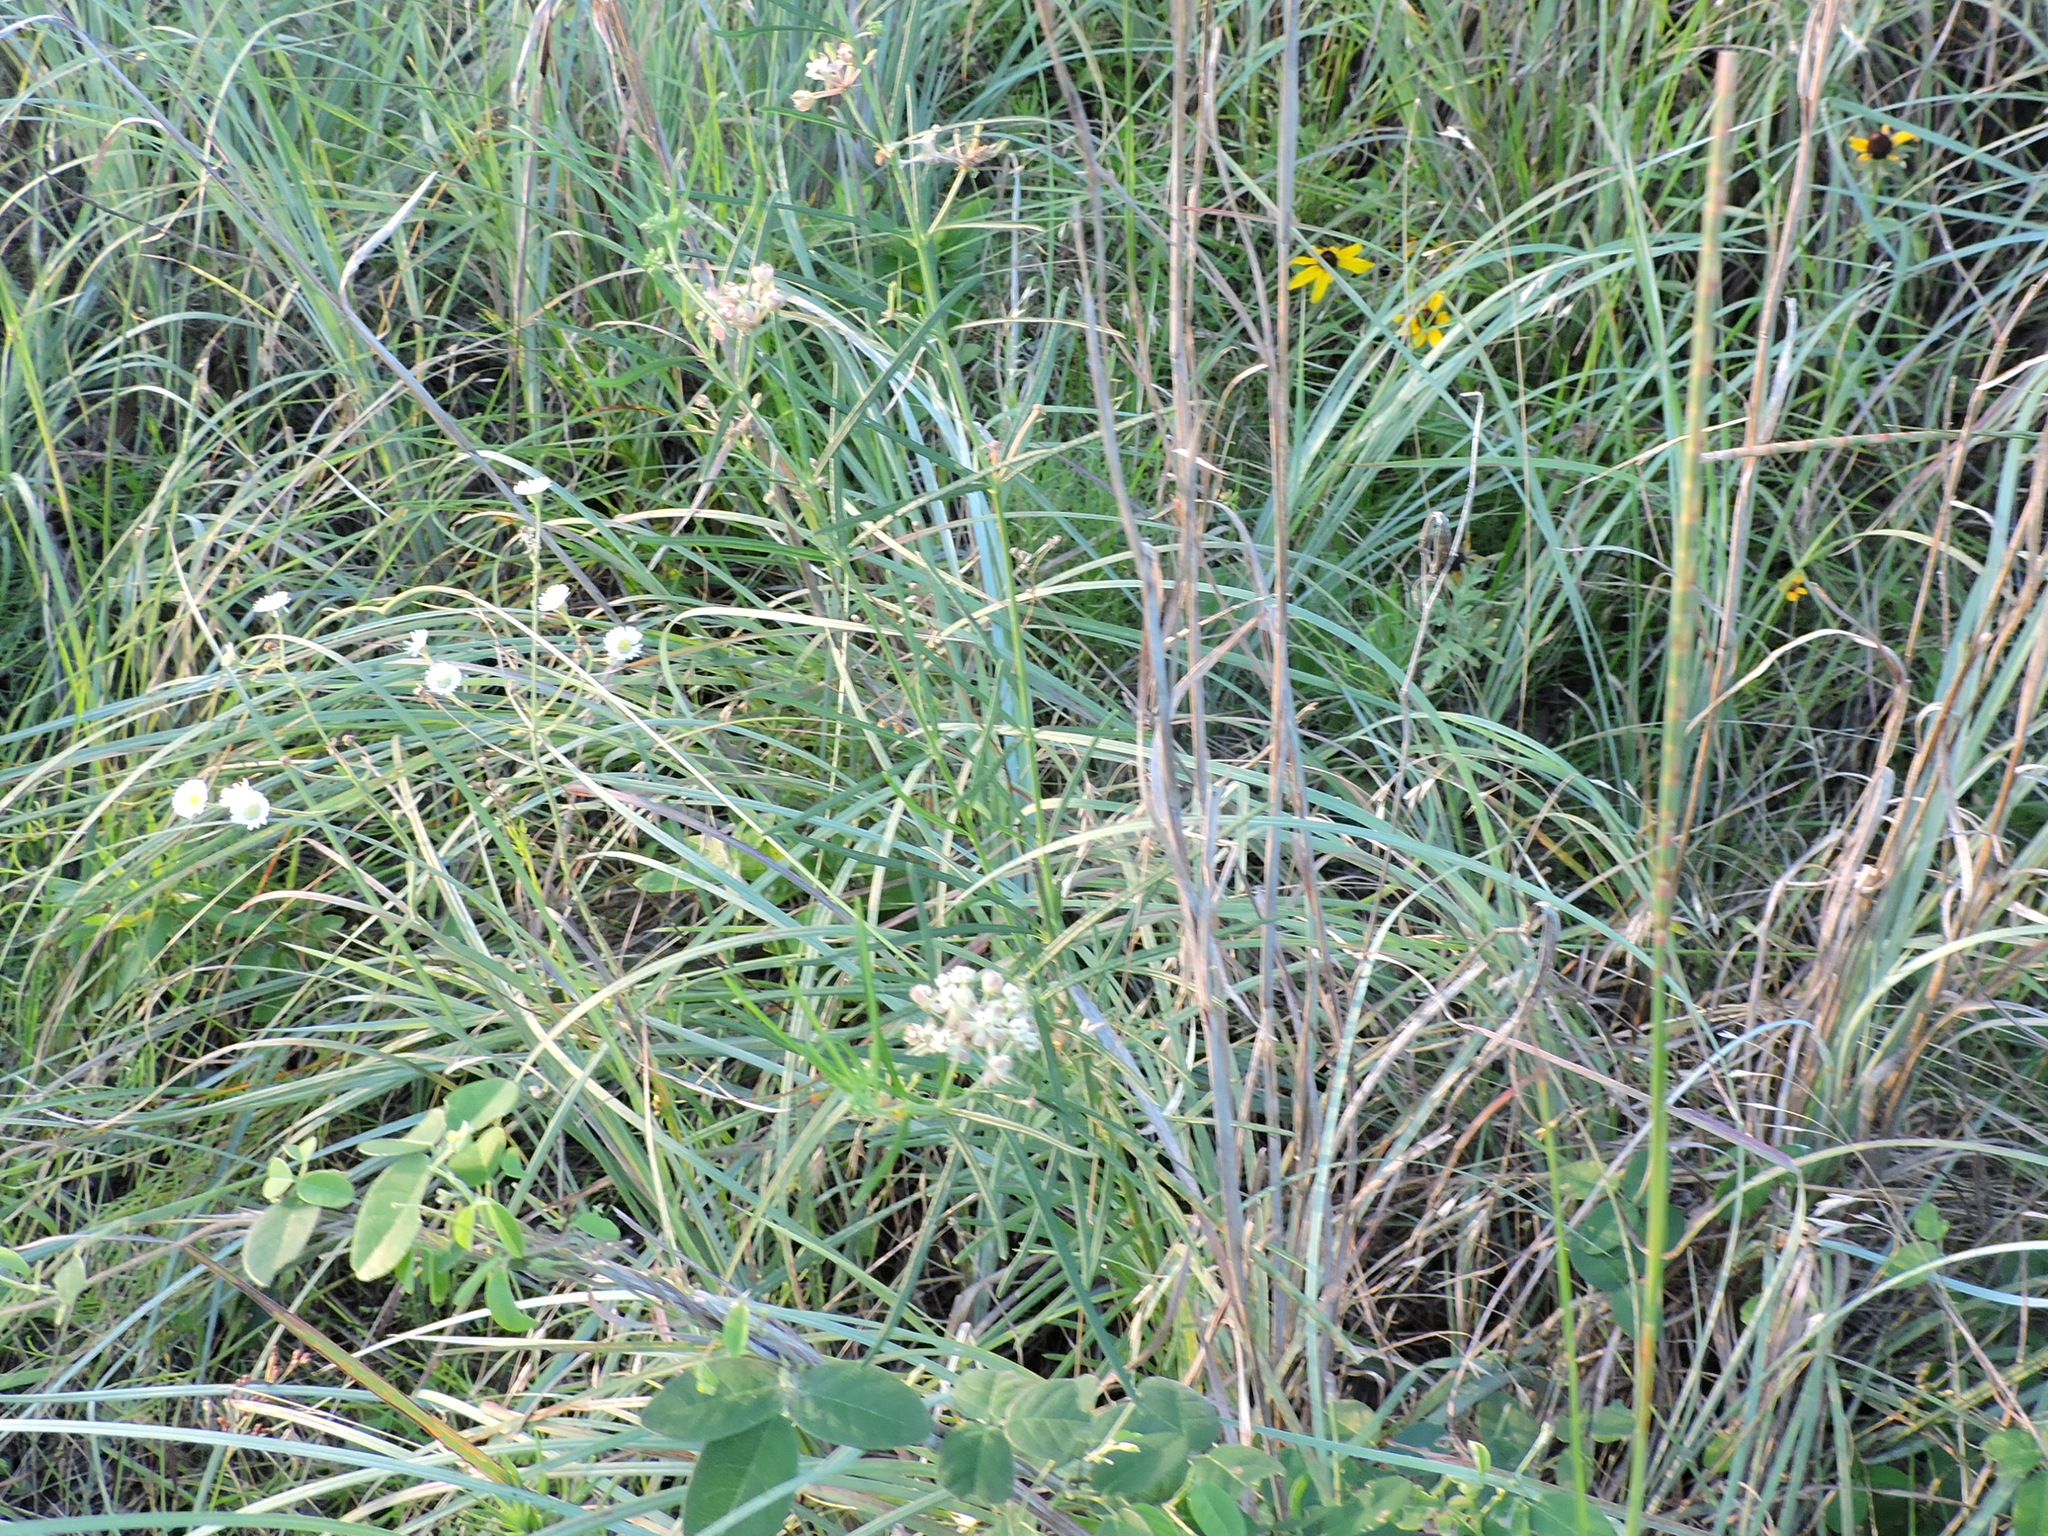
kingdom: Plantae
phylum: Tracheophyta
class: Magnoliopsida
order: Gentianales
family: Apocynaceae
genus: Asclepias
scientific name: Asclepias verticillata
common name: Eastern whorled milkweed
